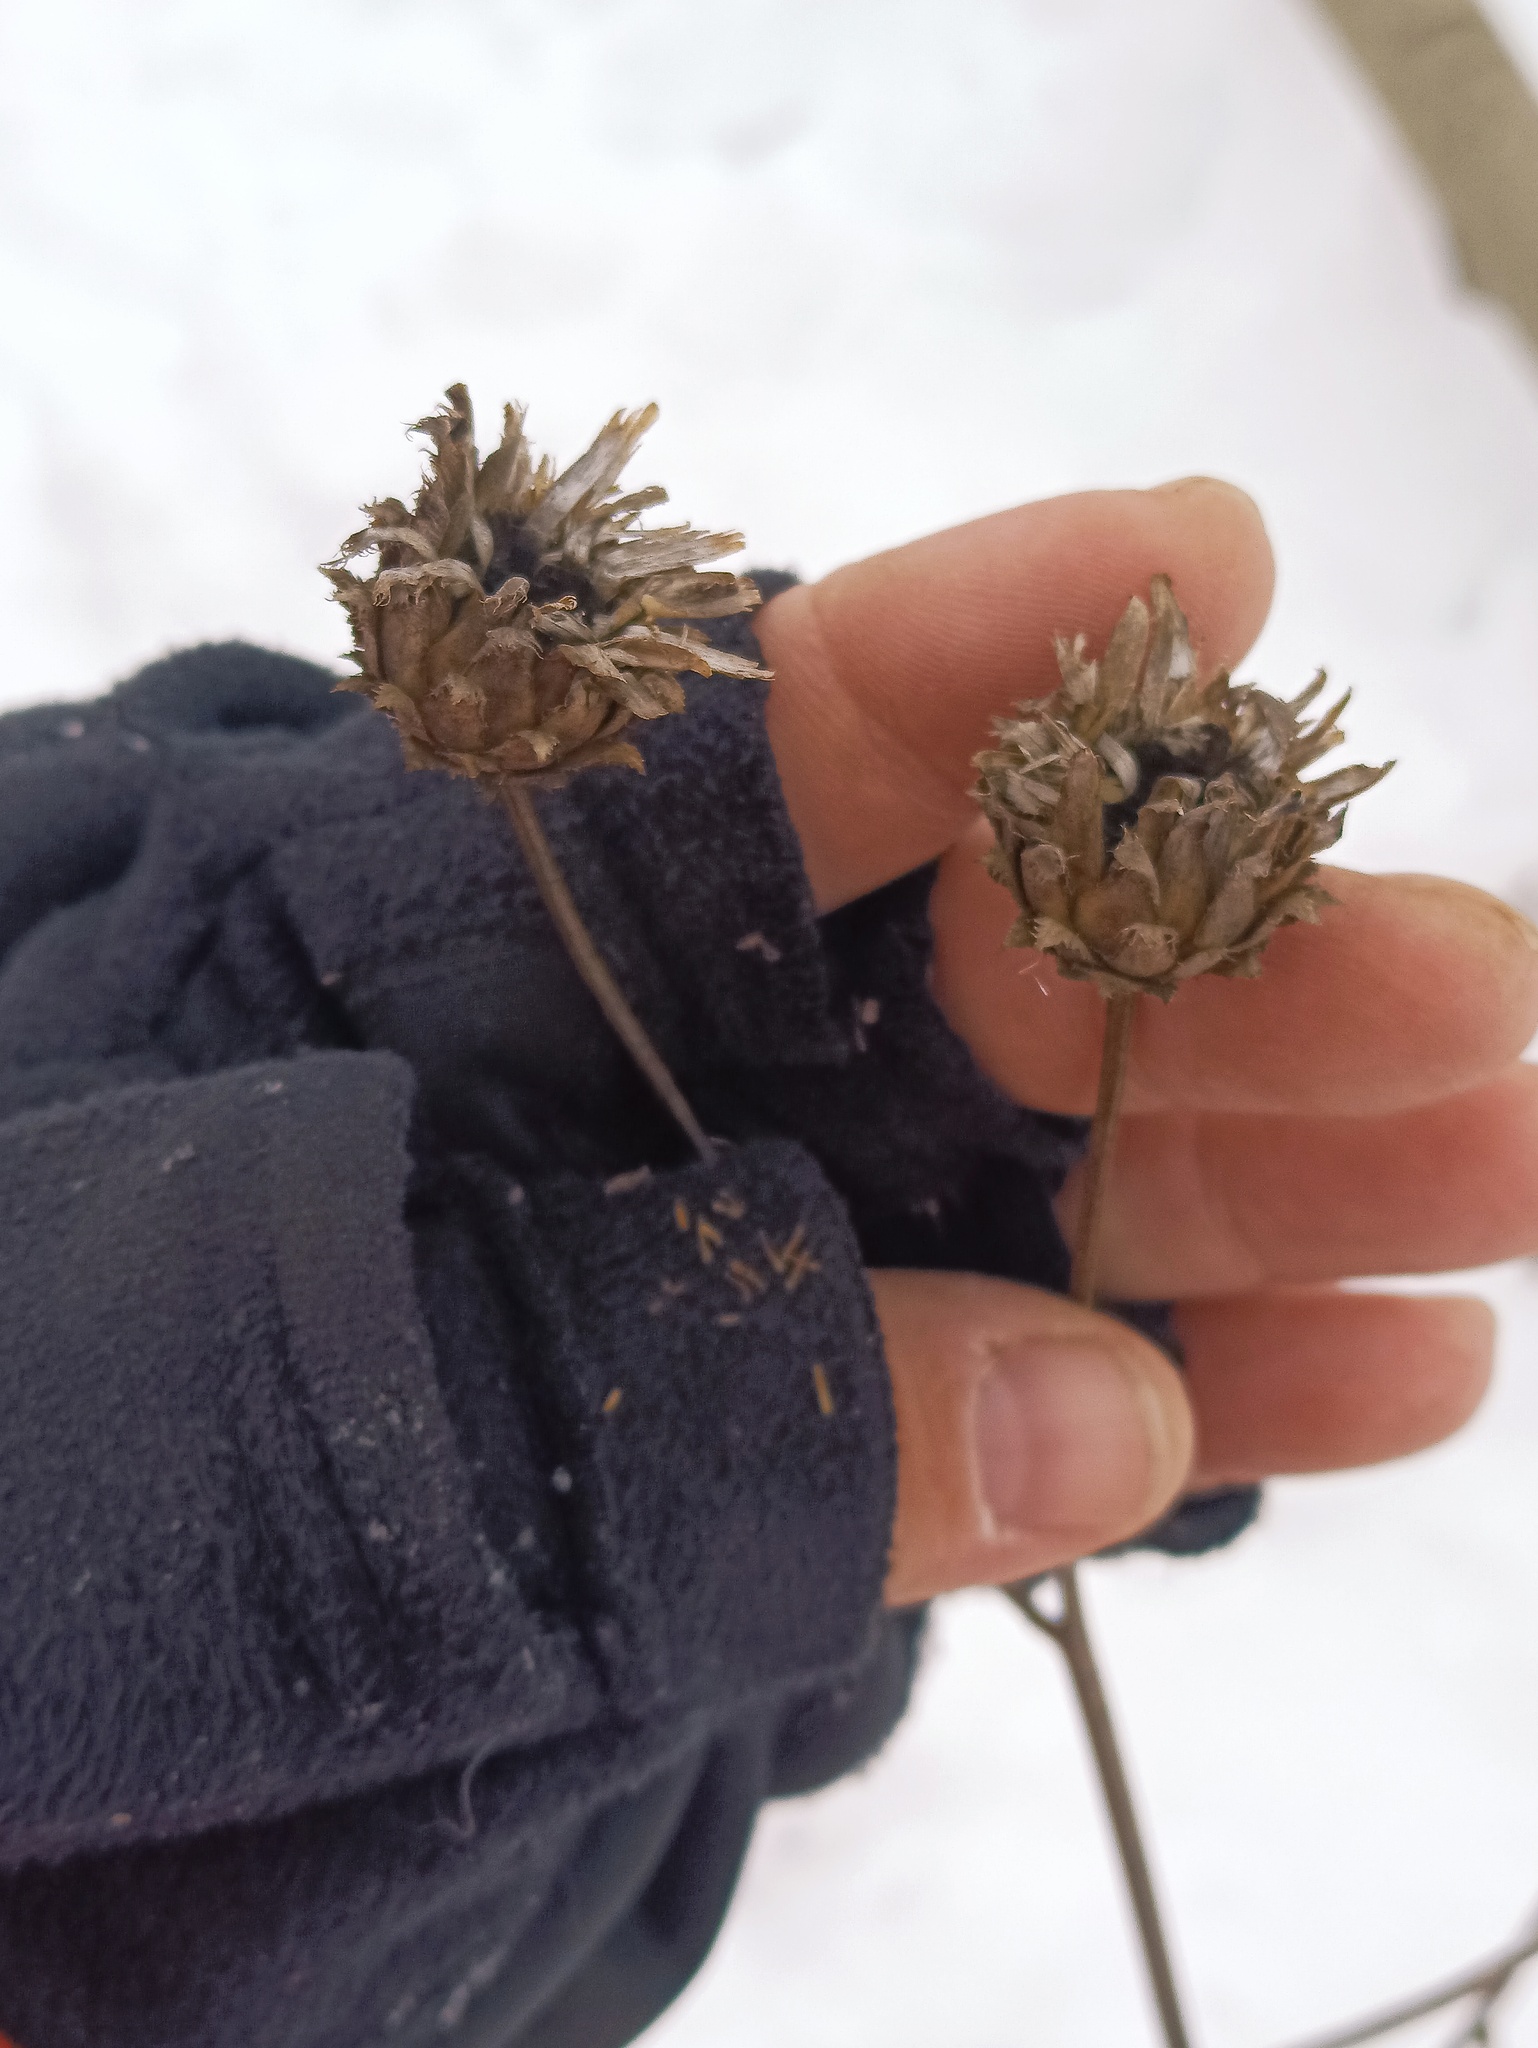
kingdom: Plantae
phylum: Tracheophyta
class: Magnoliopsida
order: Asterales
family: Asteraceae
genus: Centaurea
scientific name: Centaurea scabiosa
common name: Greater knapweed
